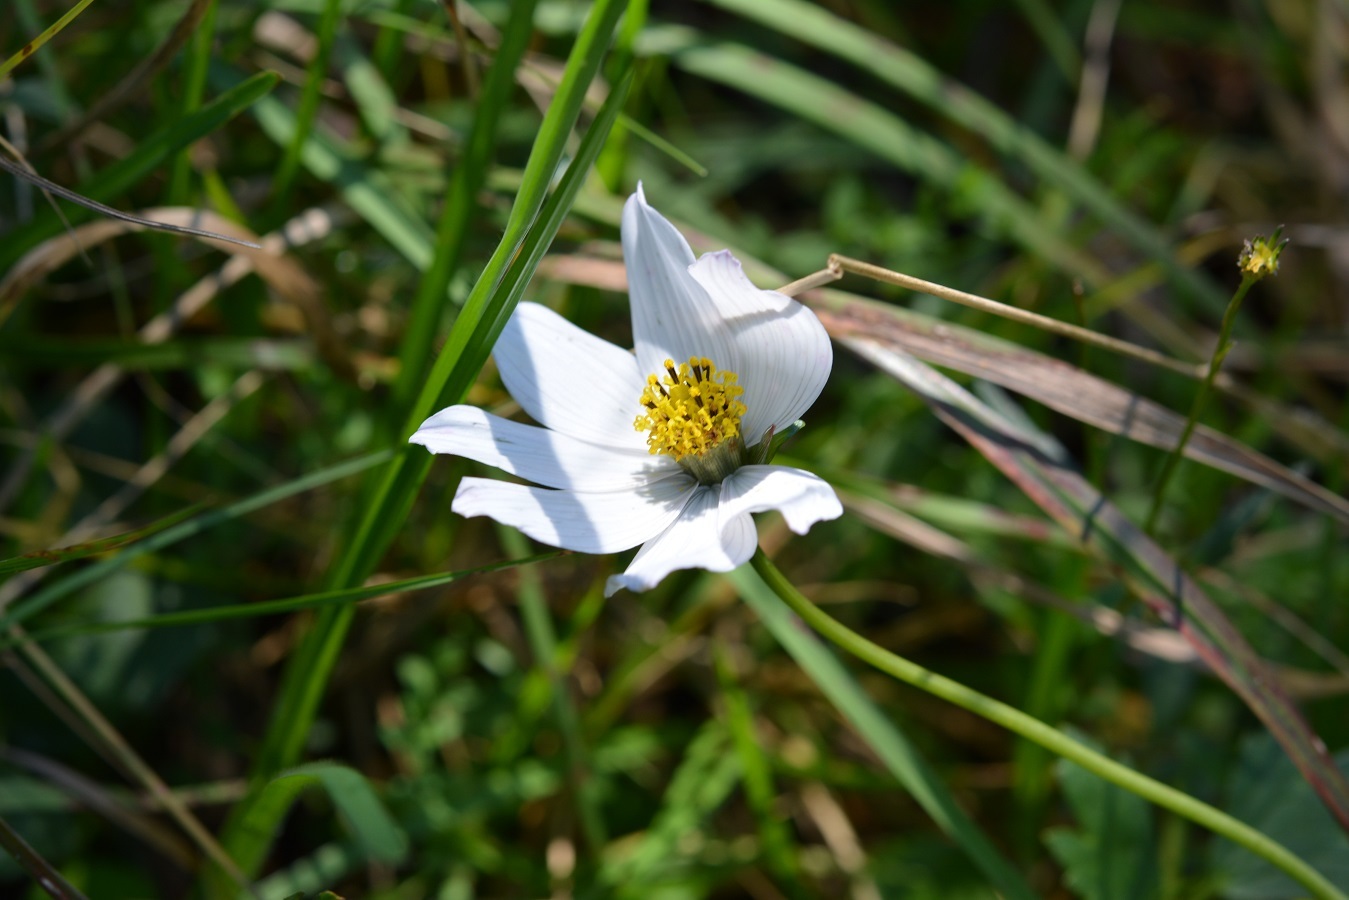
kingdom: Plantae
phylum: Tracheophyta
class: Magnoliopsida
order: Asterales
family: Asteraceae
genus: Cosmos
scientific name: Cosmos diversifolius
